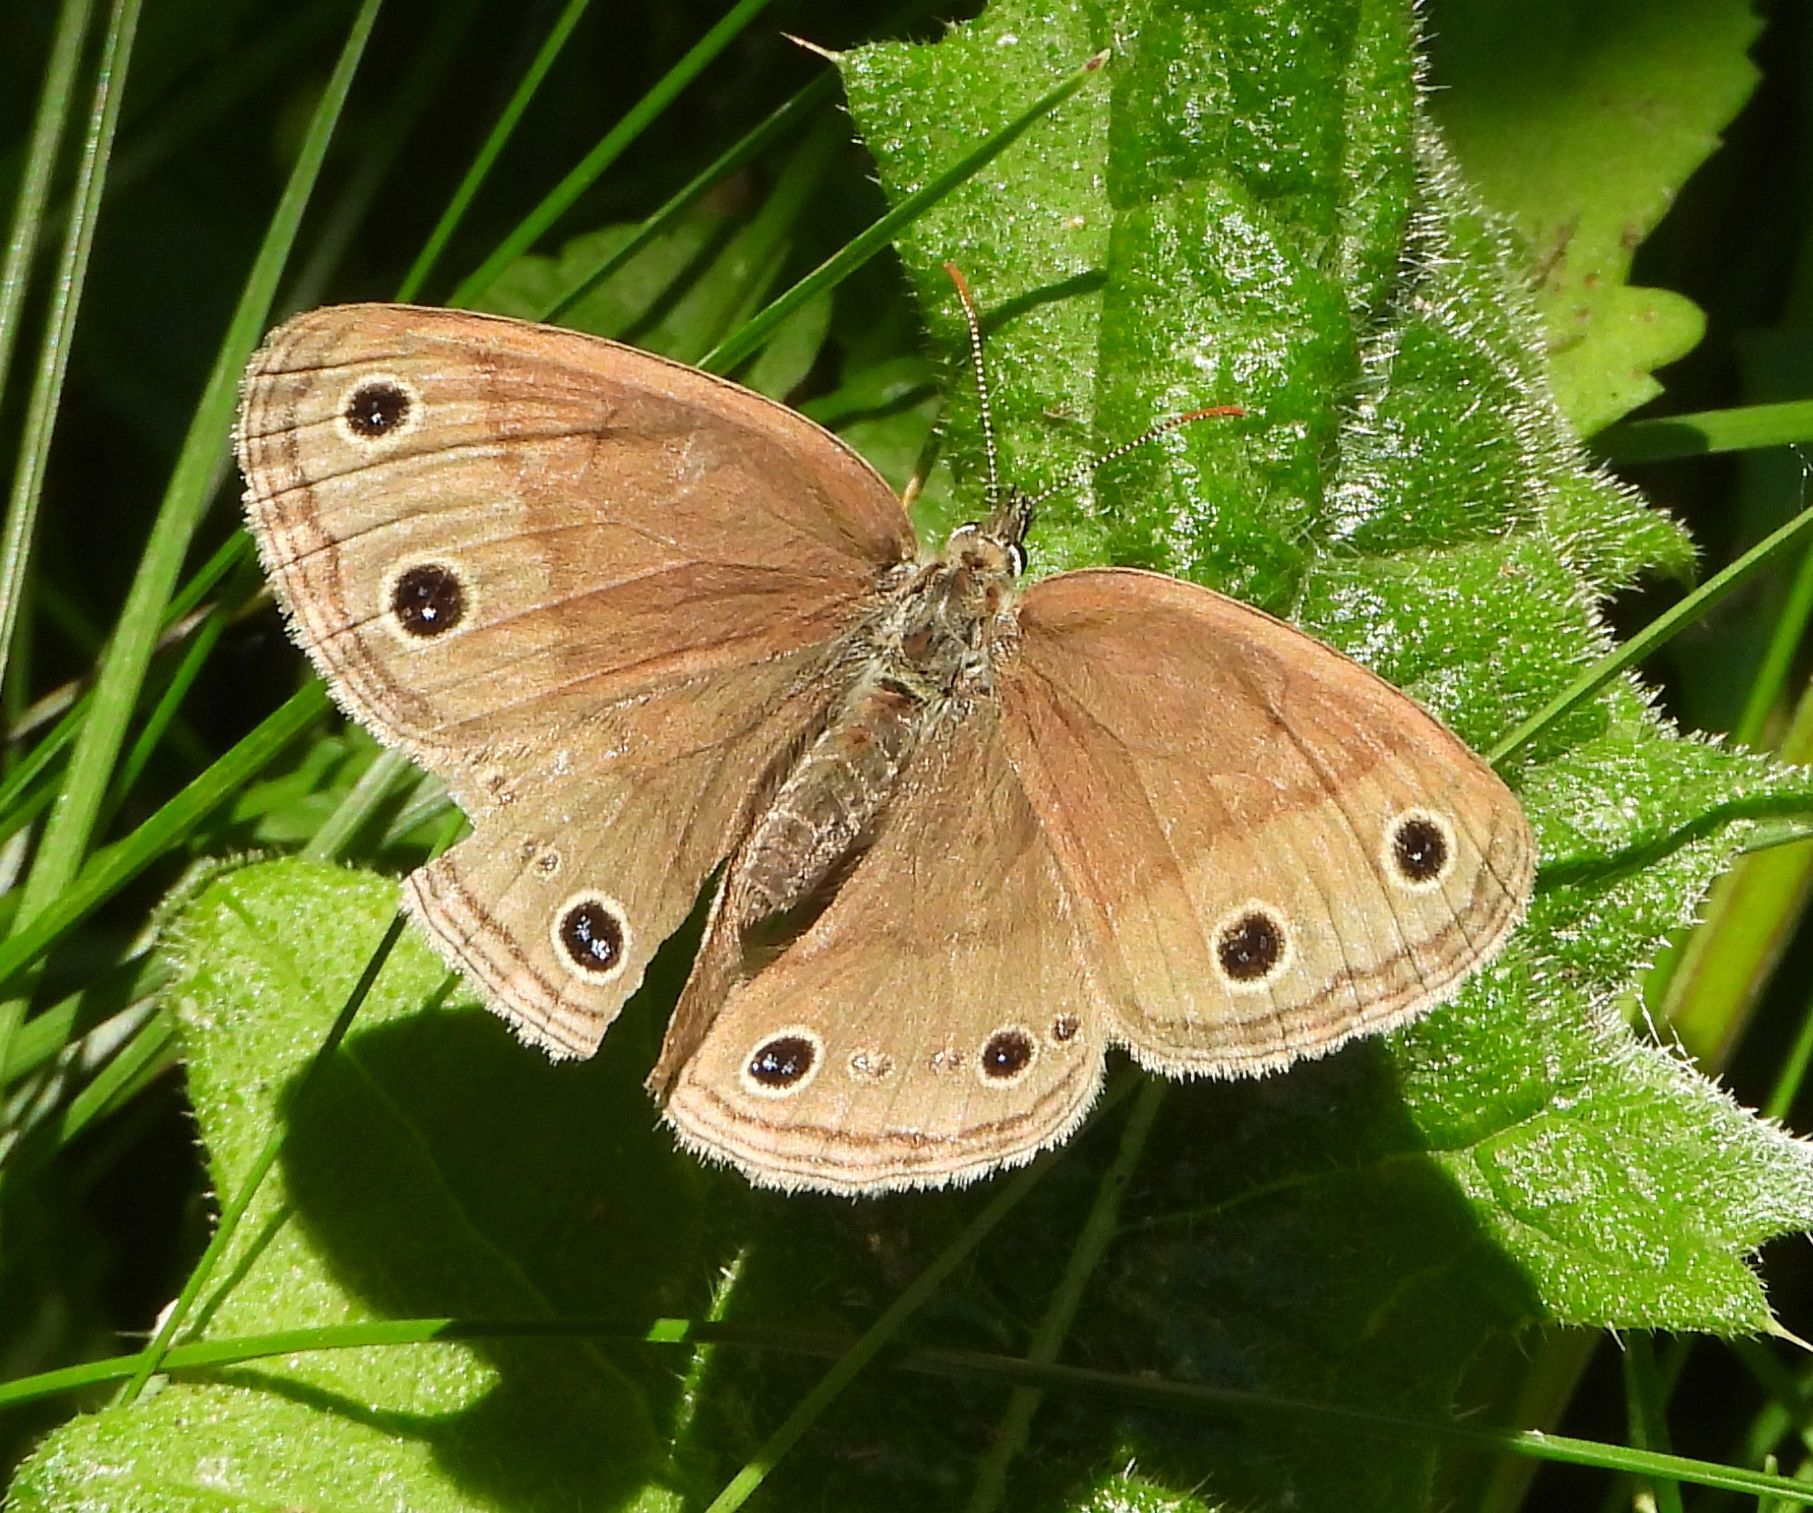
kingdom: Animalia
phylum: Arthropoda
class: Insecta
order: Lepidoptera
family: Nymphalidae
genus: Euptychia
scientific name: Euptychia cymela
